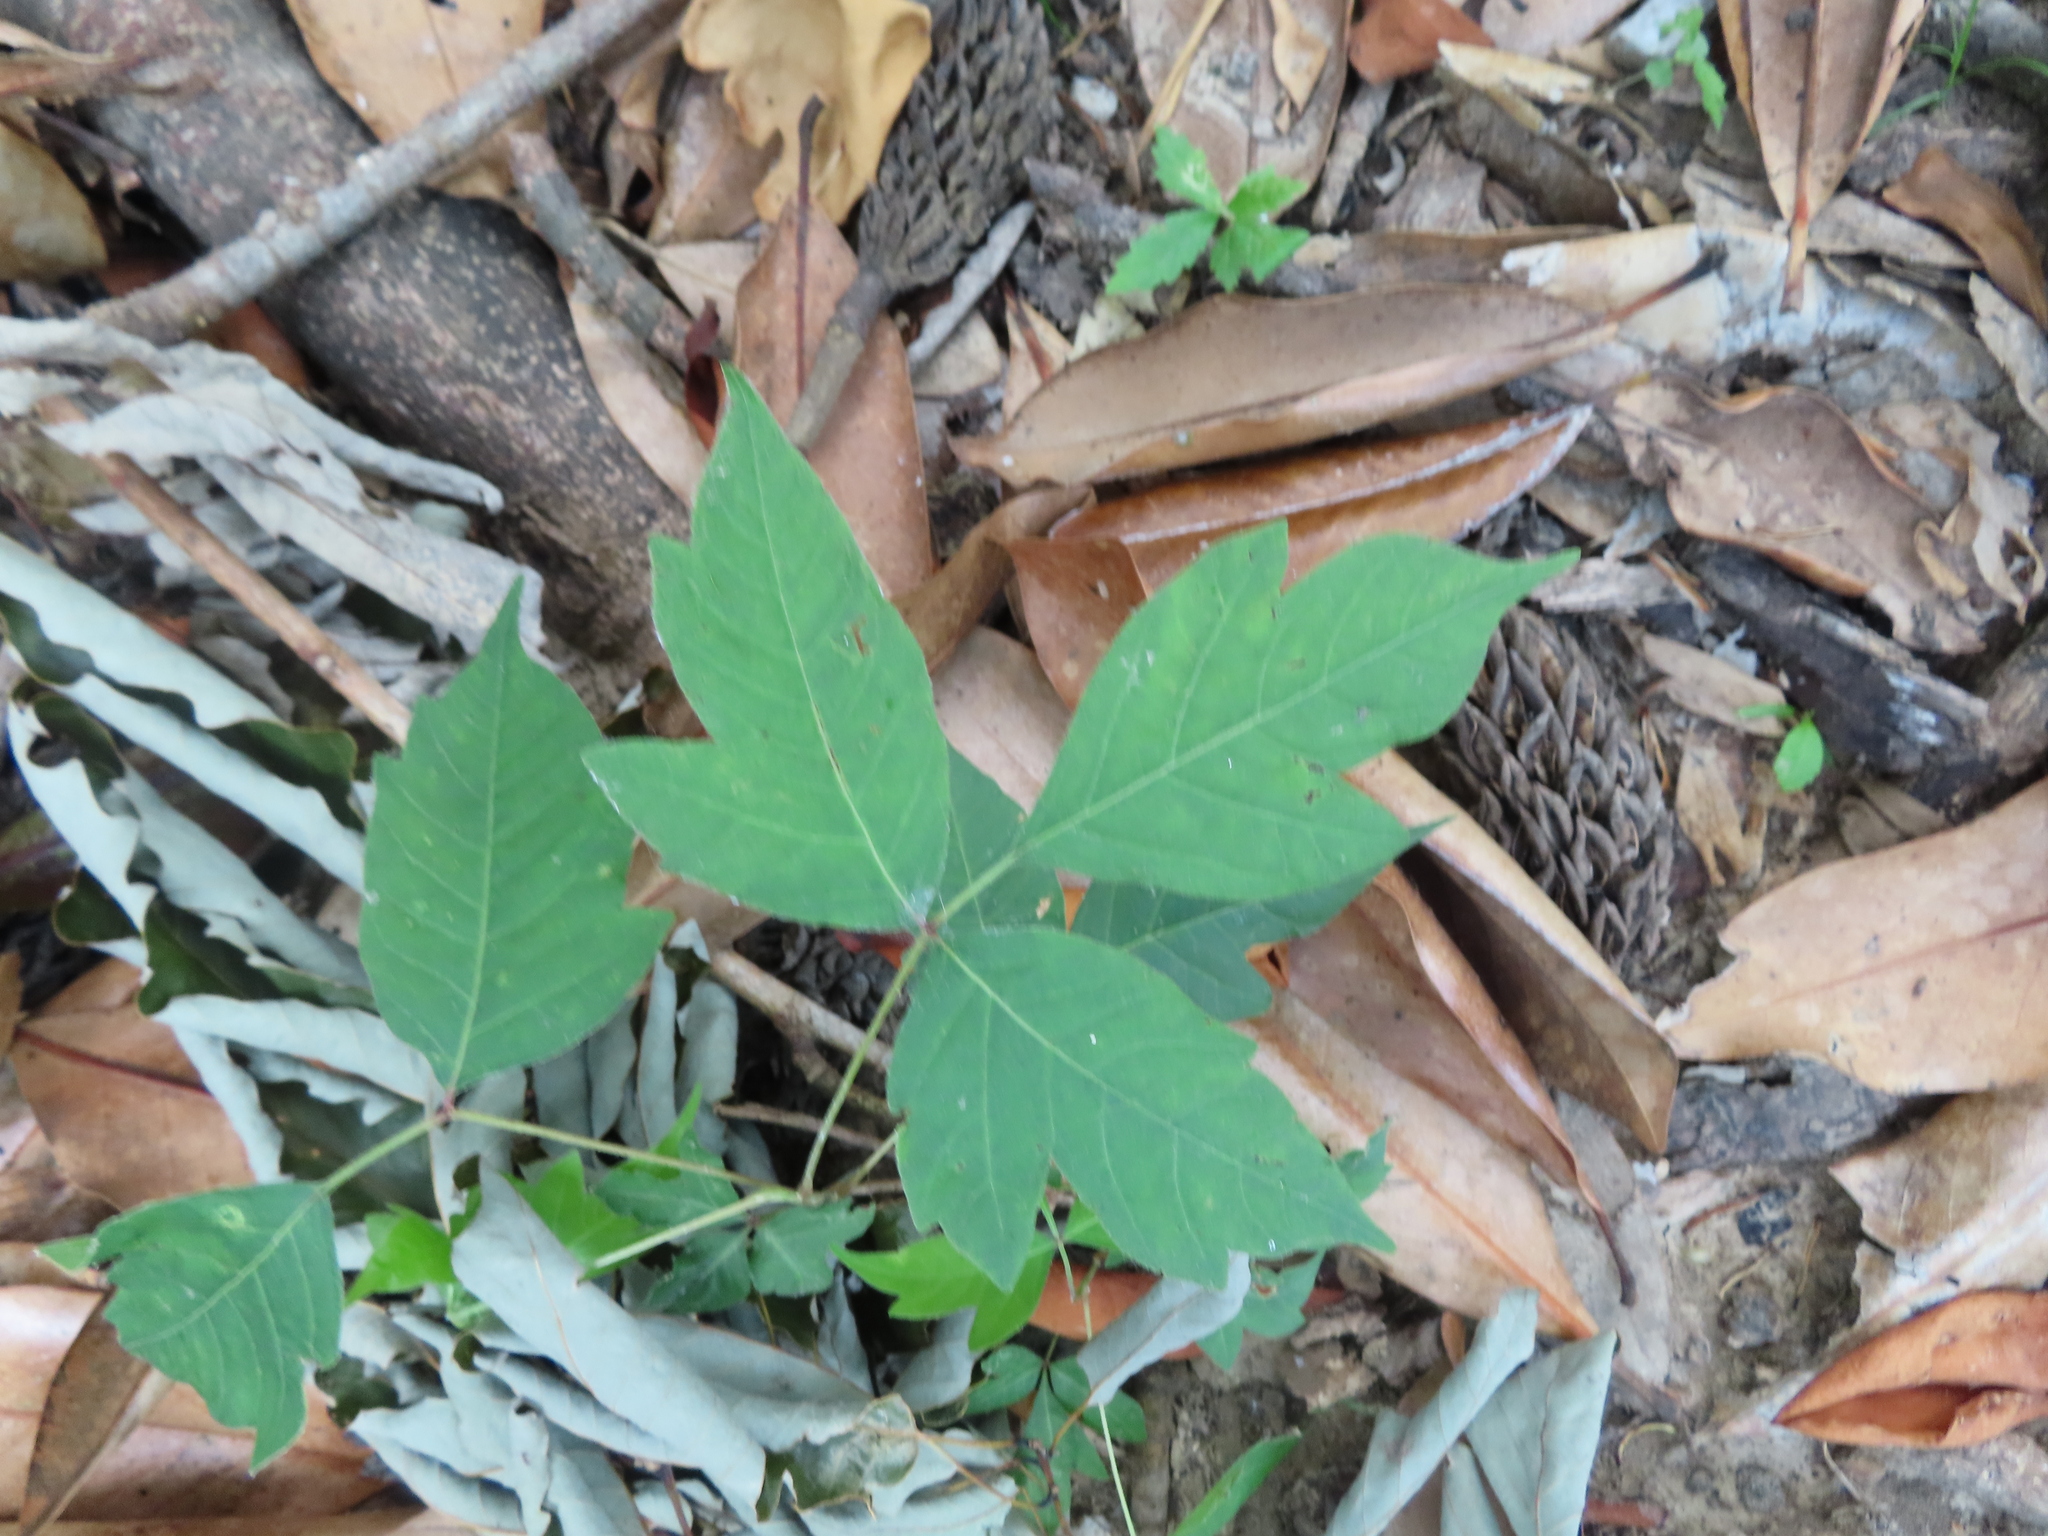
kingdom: Plantae
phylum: Tracheophyta
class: Magnoliopsida
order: Sapindales
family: Anacardiaceae
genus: Toxicodendron
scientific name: Toxicodendron radicans
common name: Poison ivy
